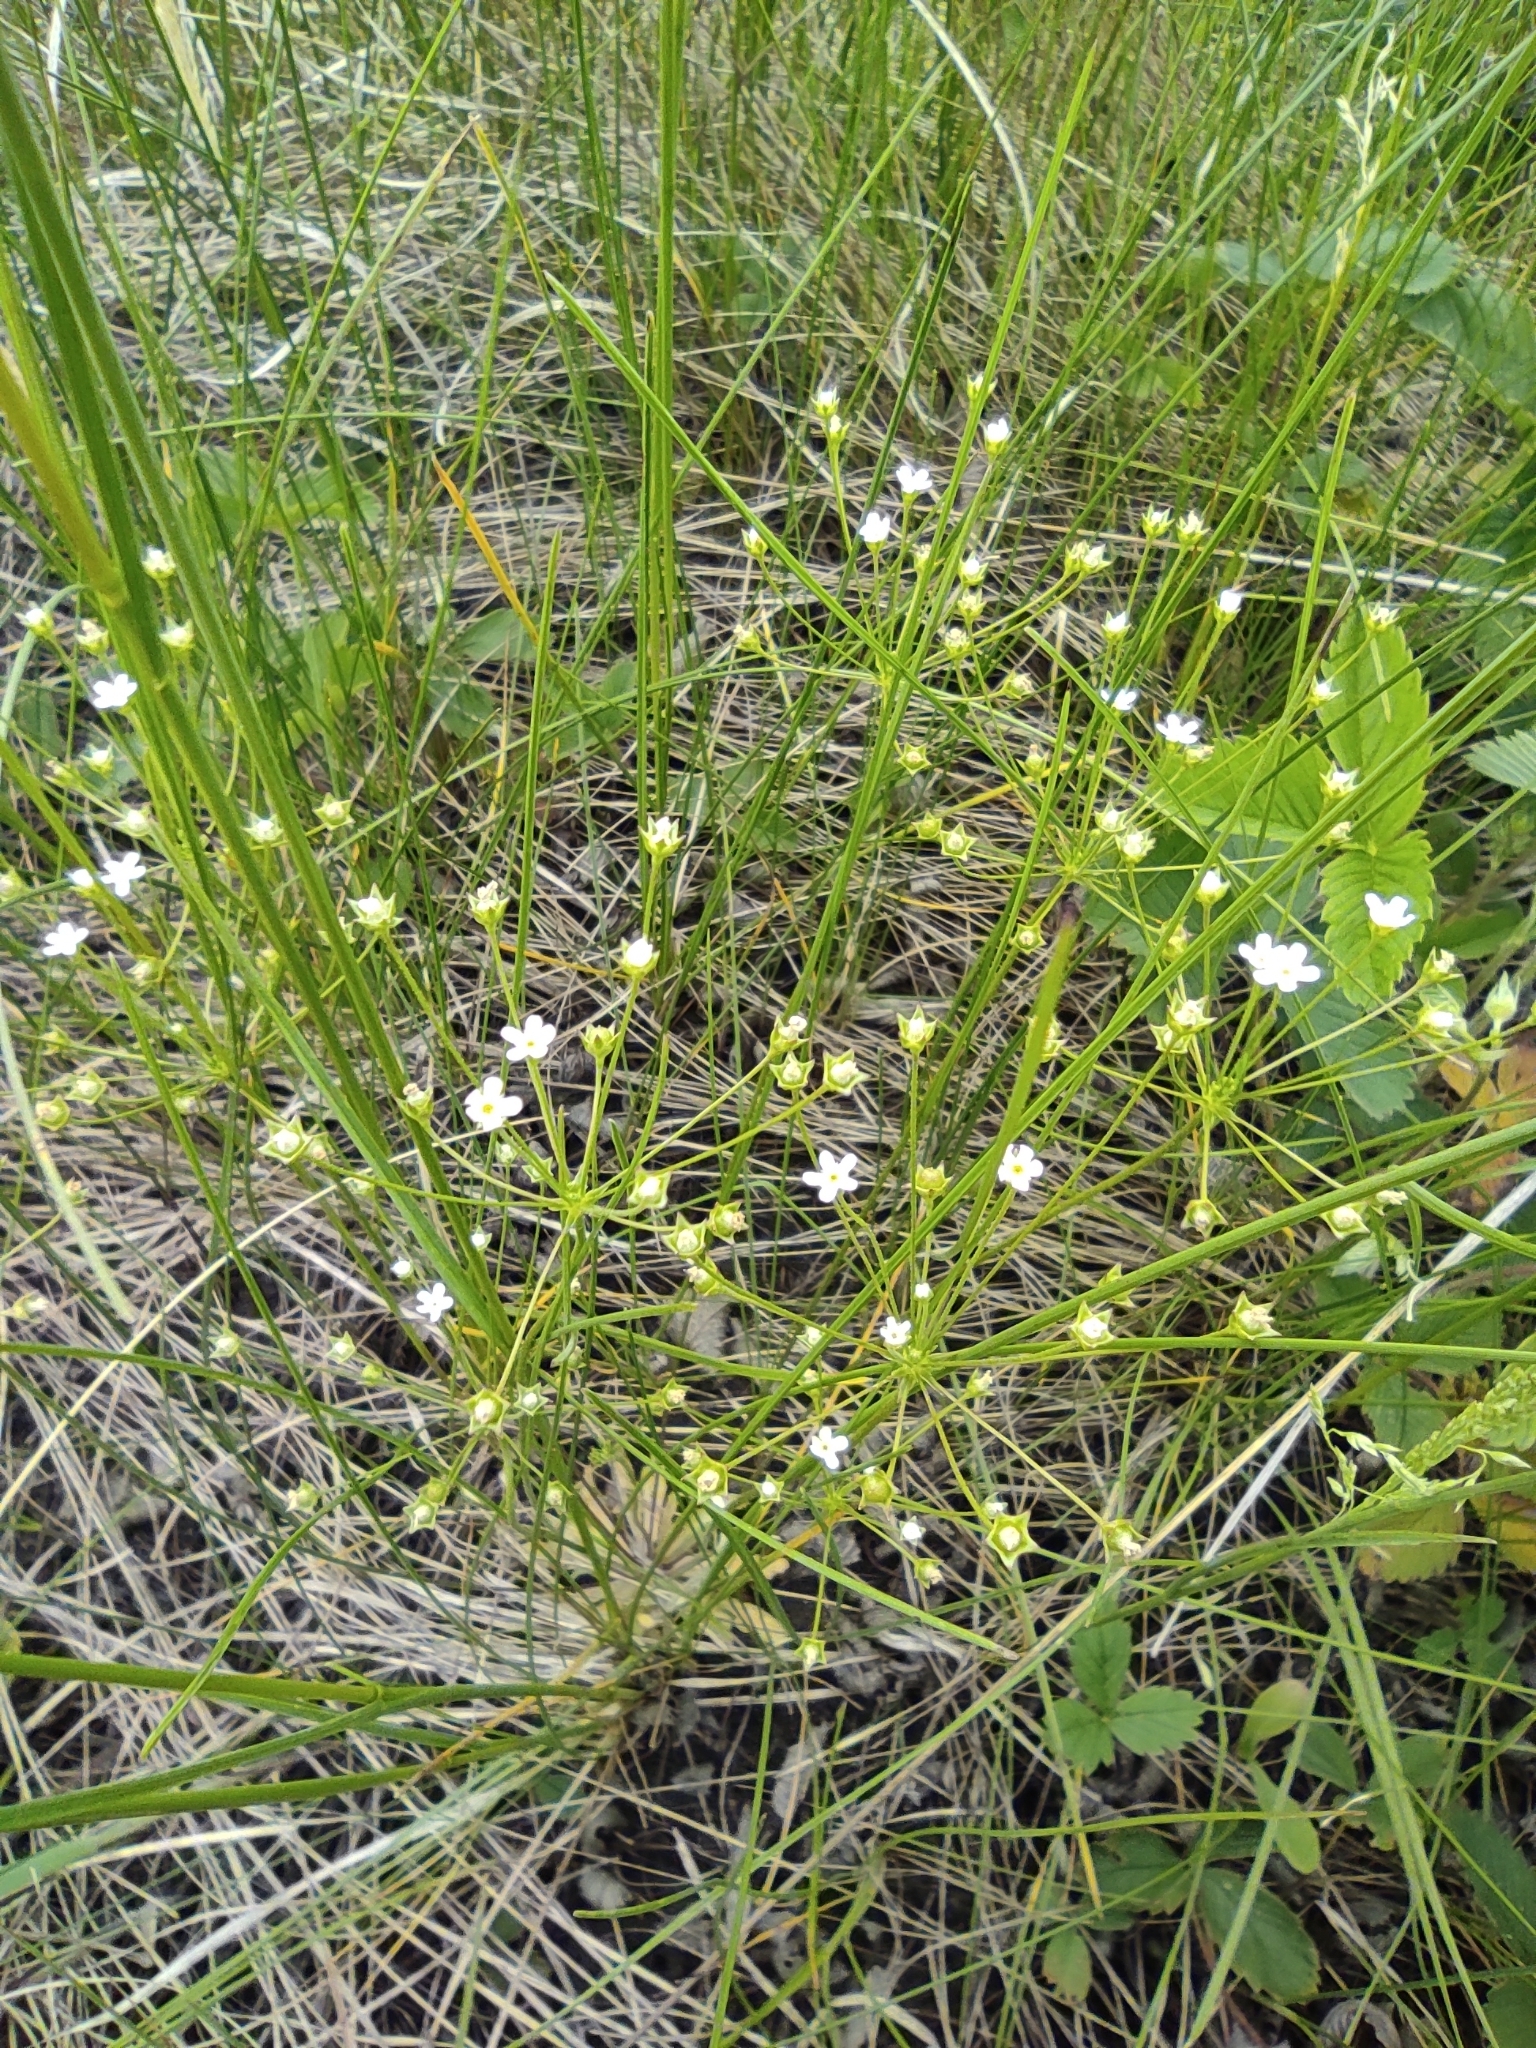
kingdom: Plantae
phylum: Tracheophyta
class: Magnoliopsida
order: Ericales
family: Primulaceae
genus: Androsace
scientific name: Androsace septentrionalis
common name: Hairy northern fairy-candelabra
